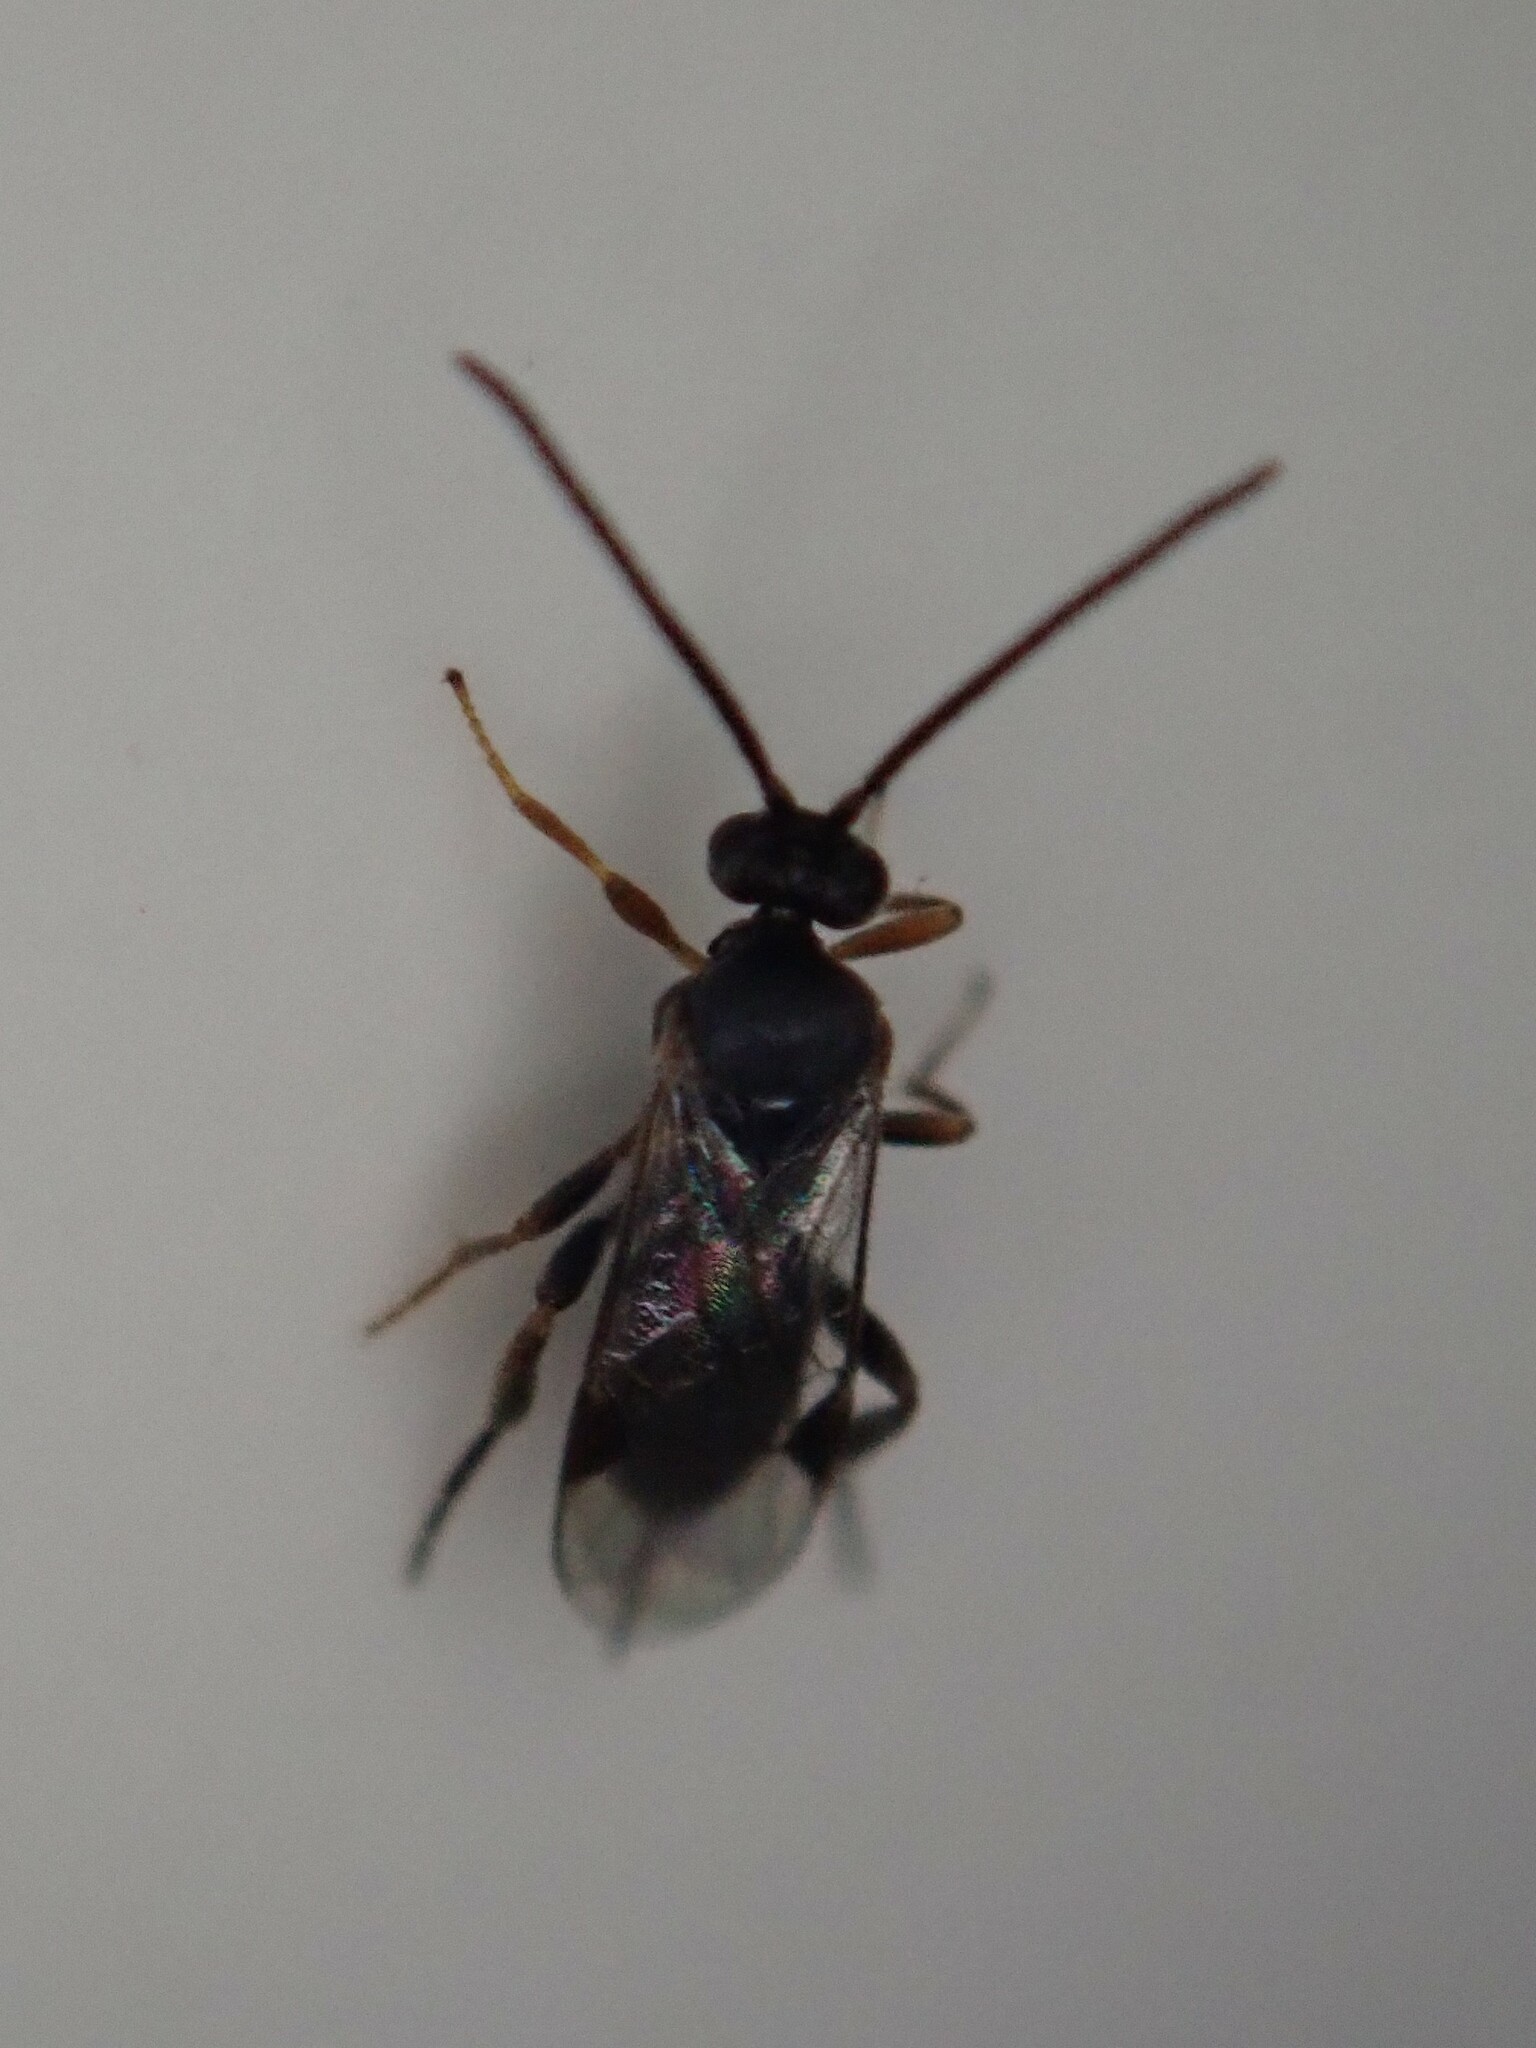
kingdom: Animalia
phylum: Arthropoda
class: Insecta
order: Hymenoptera
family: Braconidae
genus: Apanteles
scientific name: Apanteles carpatus
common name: Parasitoid wasp
